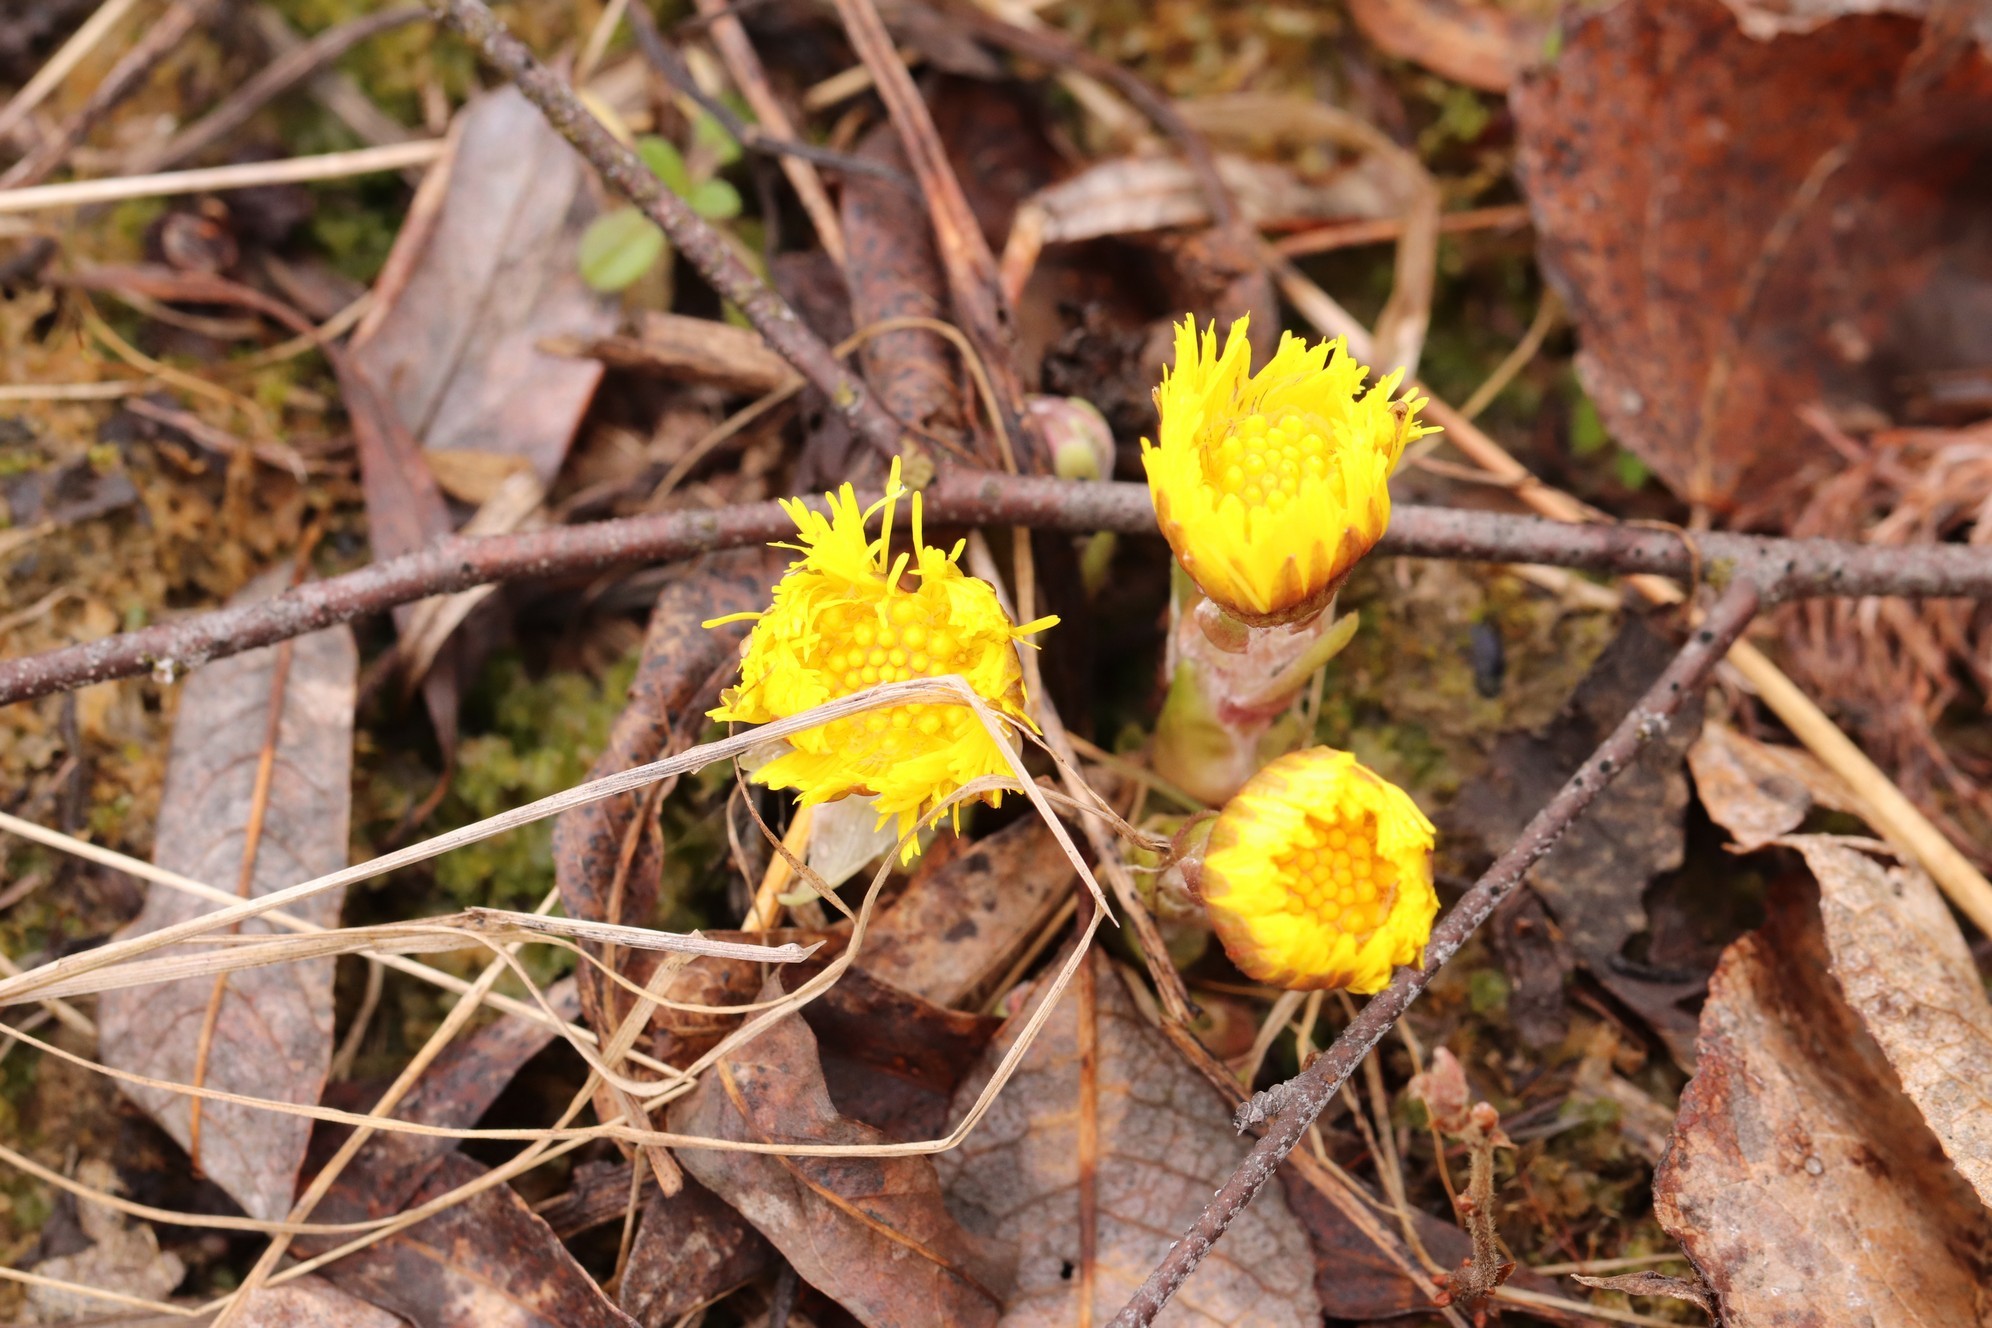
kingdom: Plantae
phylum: Tracheophyta
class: Magnoliopsida
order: Asterales
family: Asteraceae
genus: Tussilago
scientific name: Tussilago farfara
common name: Coltsfoot
